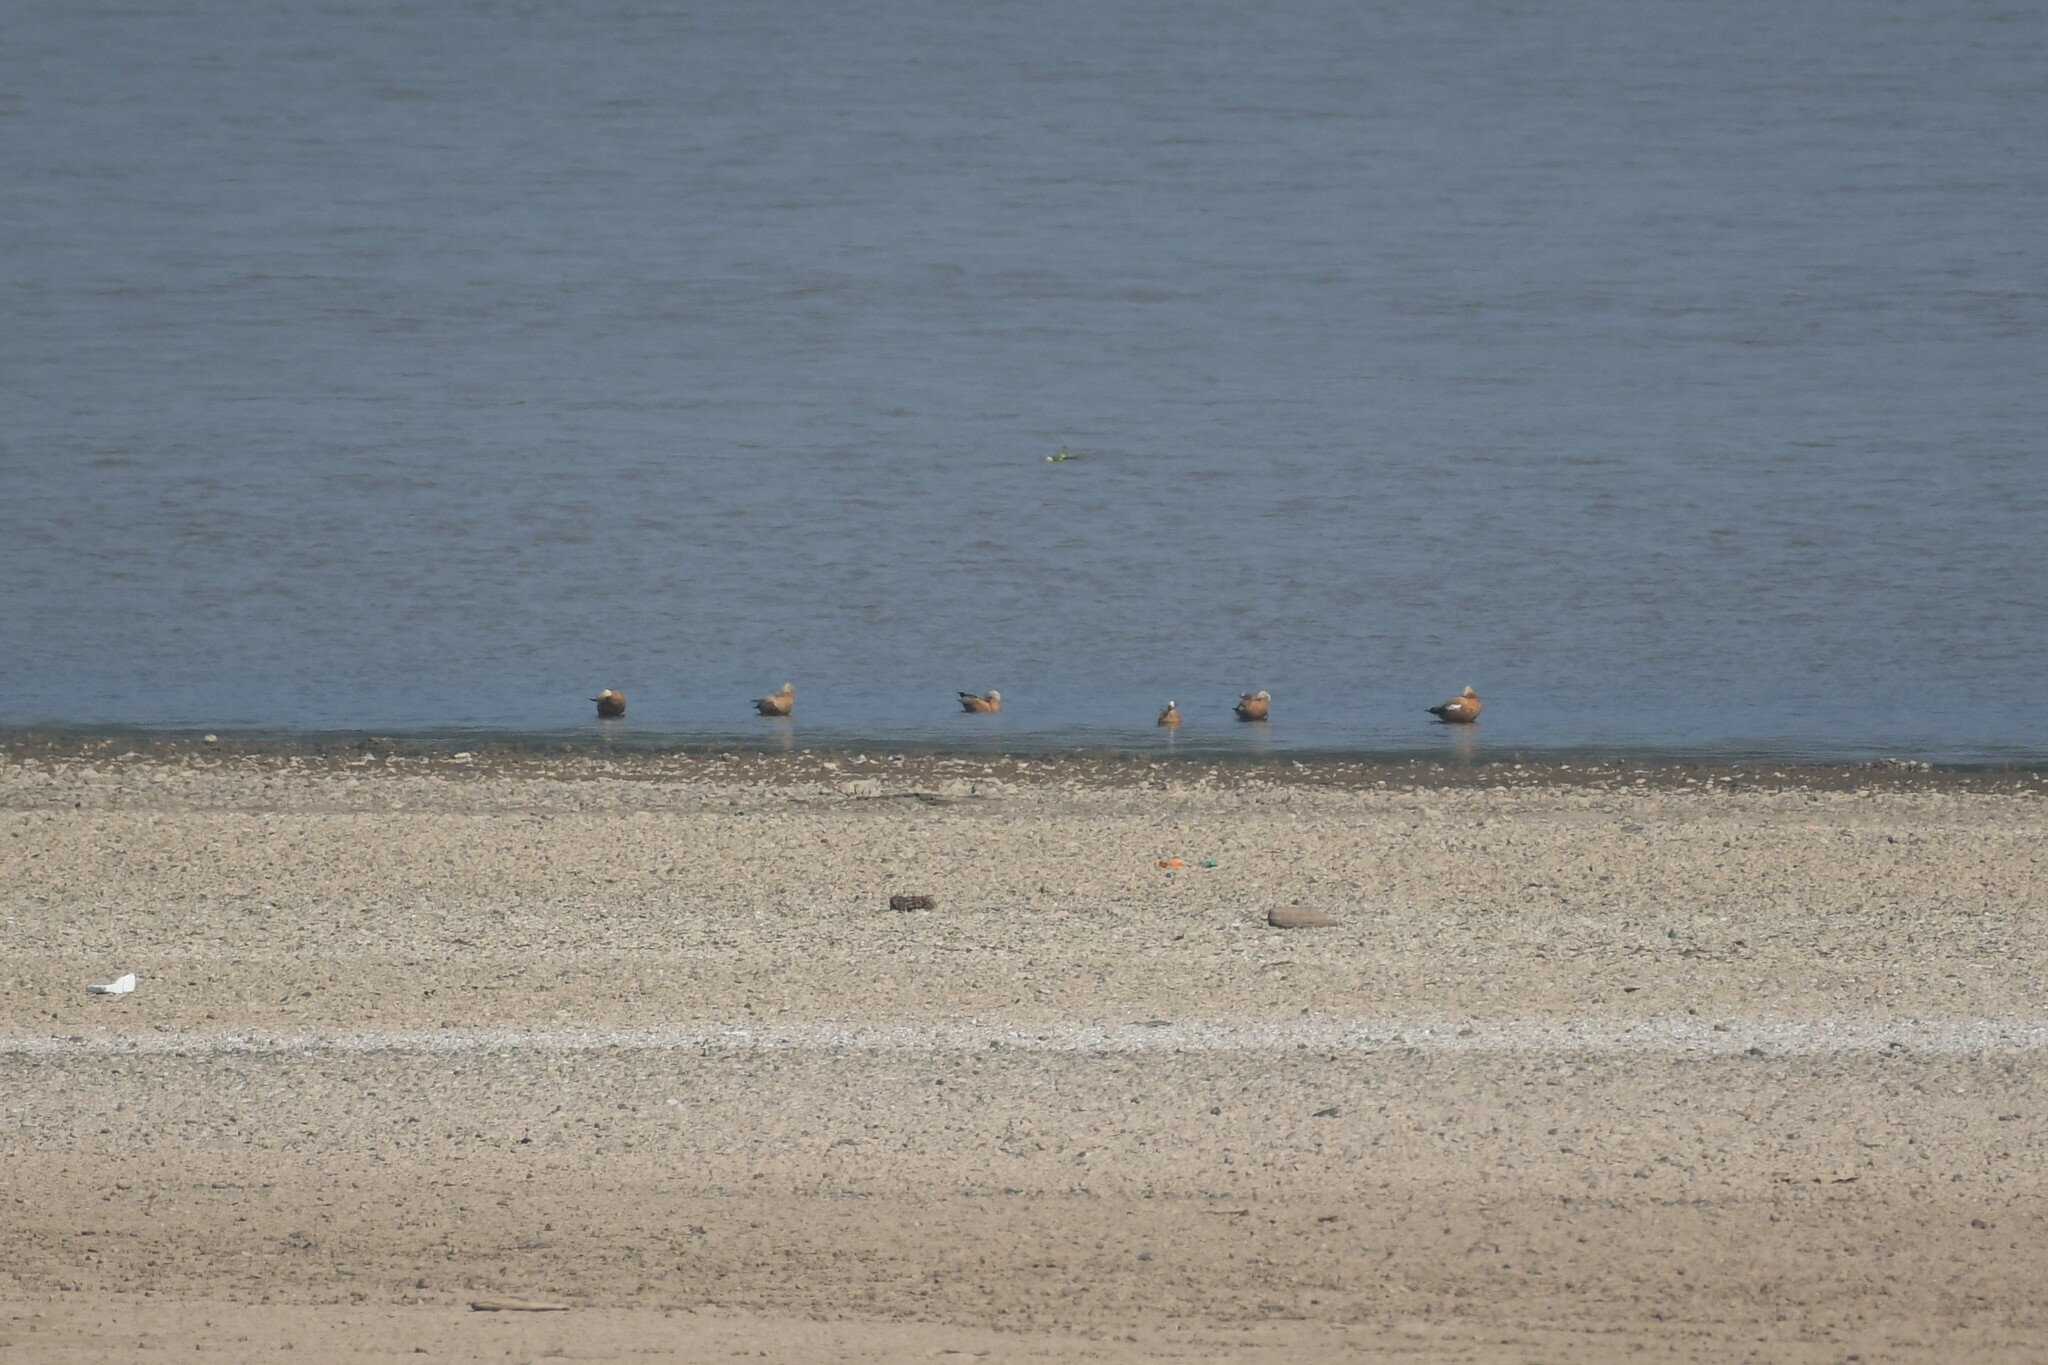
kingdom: Animalia
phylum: Chordata
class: Aves
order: Anseriformes
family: Anatidae
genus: Tadorna
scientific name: Tadorna ferruginea
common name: Ruddy shelduck
